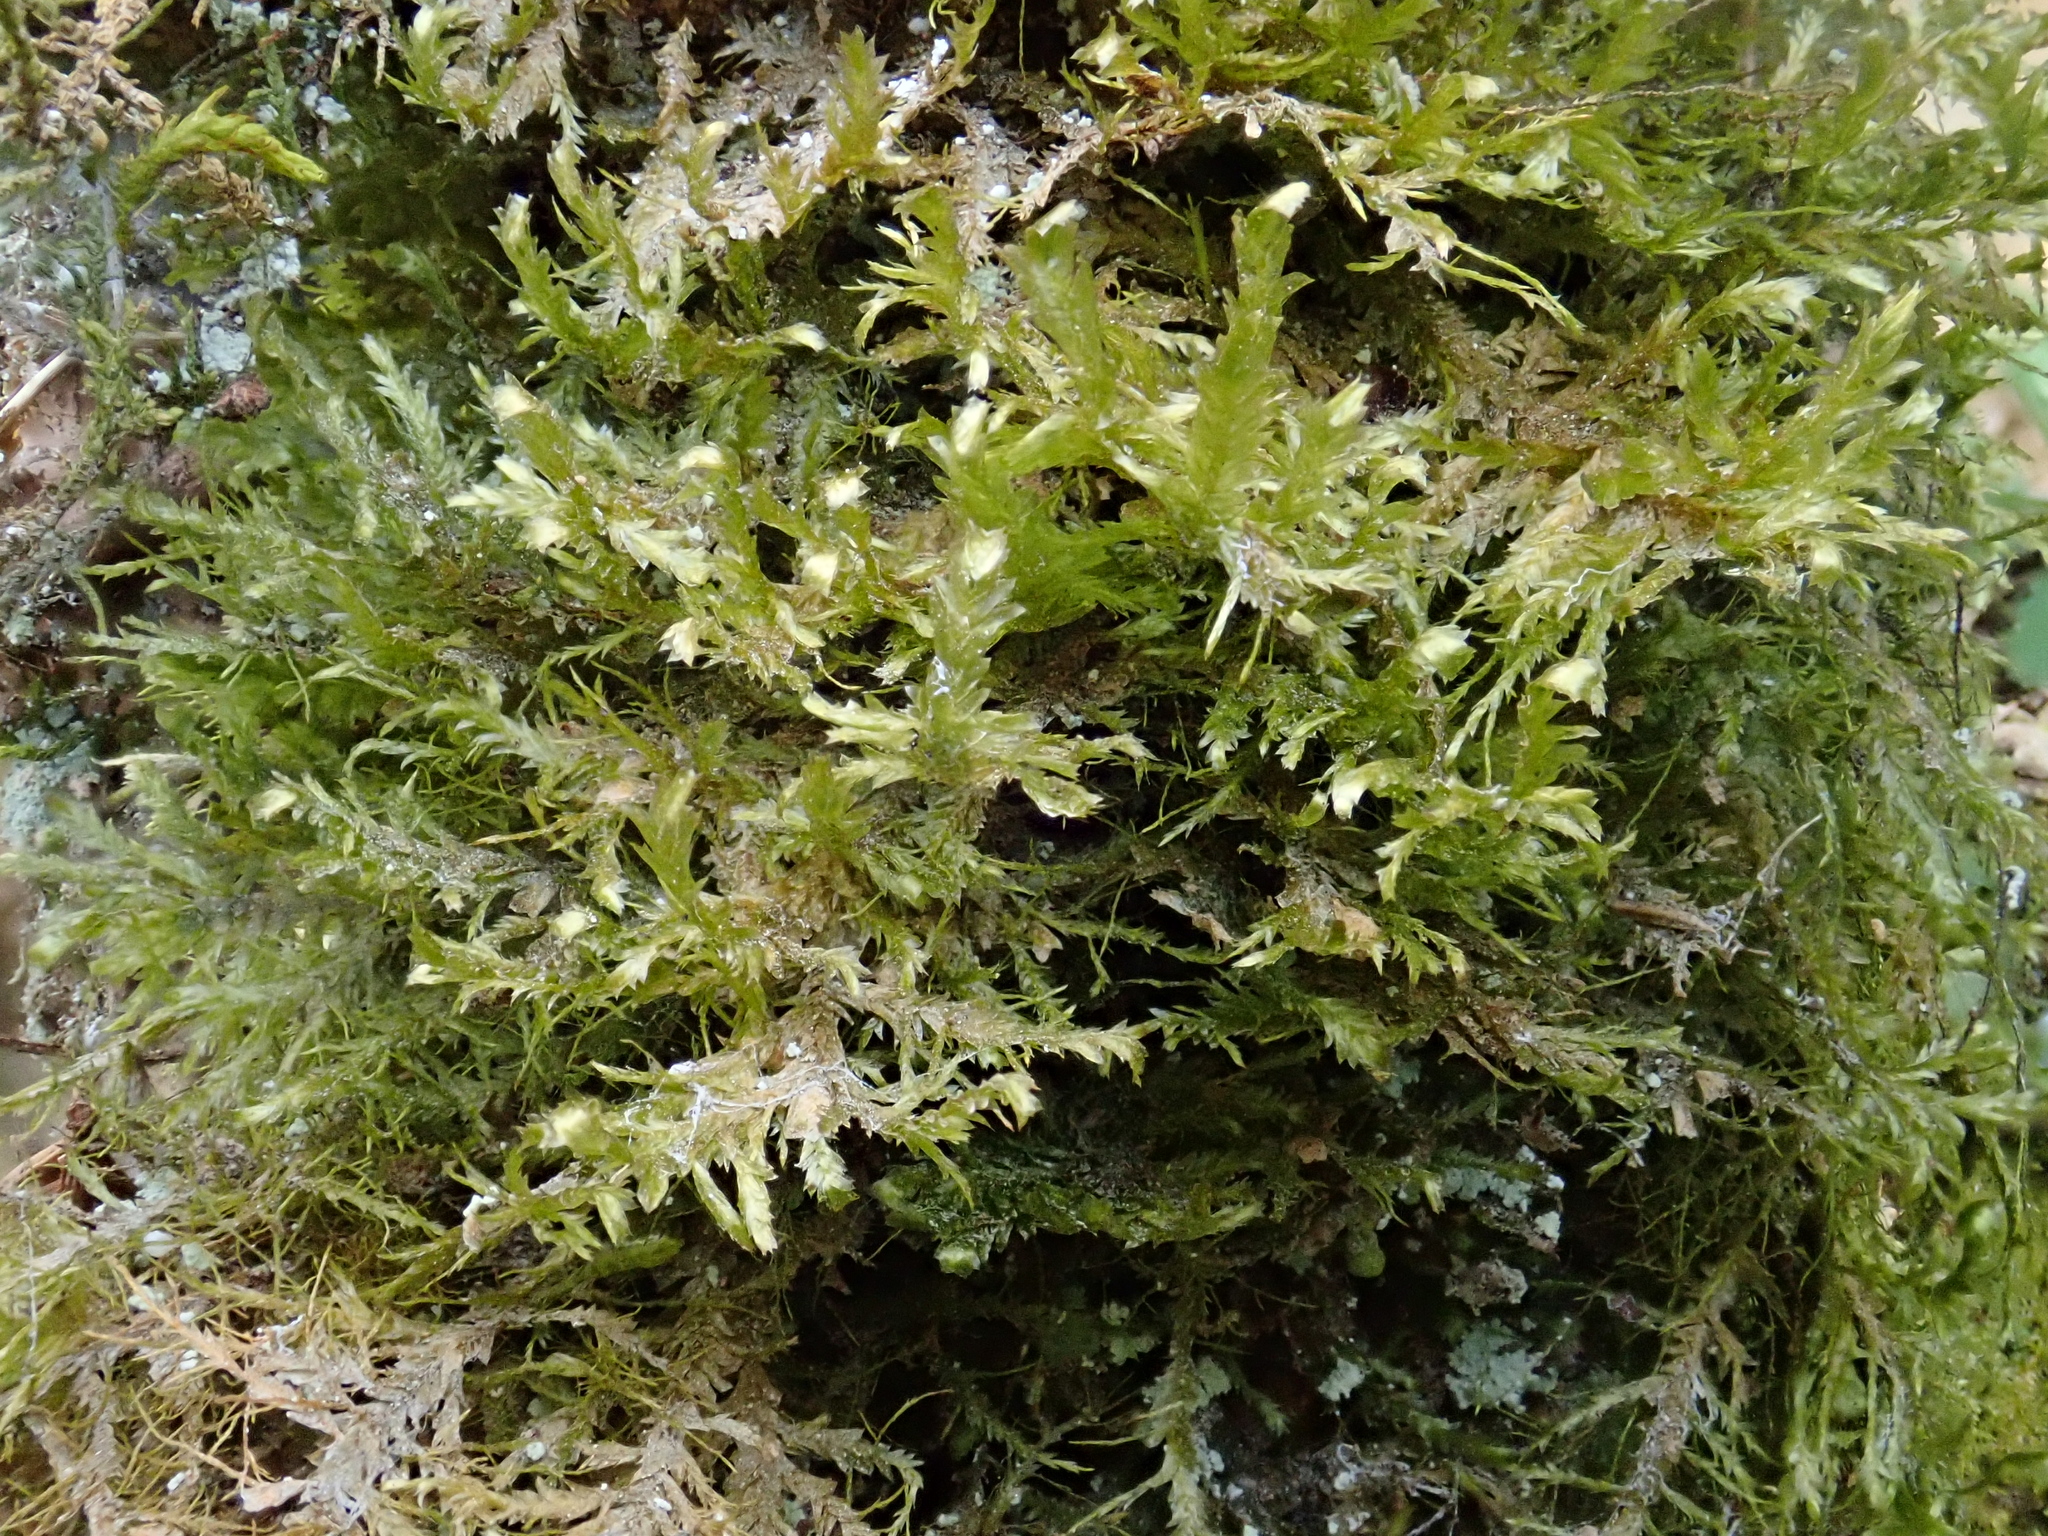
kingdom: Plantae
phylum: Bryophyta
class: Bryopsida
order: Hypnales
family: Neckeraceae
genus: Alleniella
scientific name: Alleniella complanata
